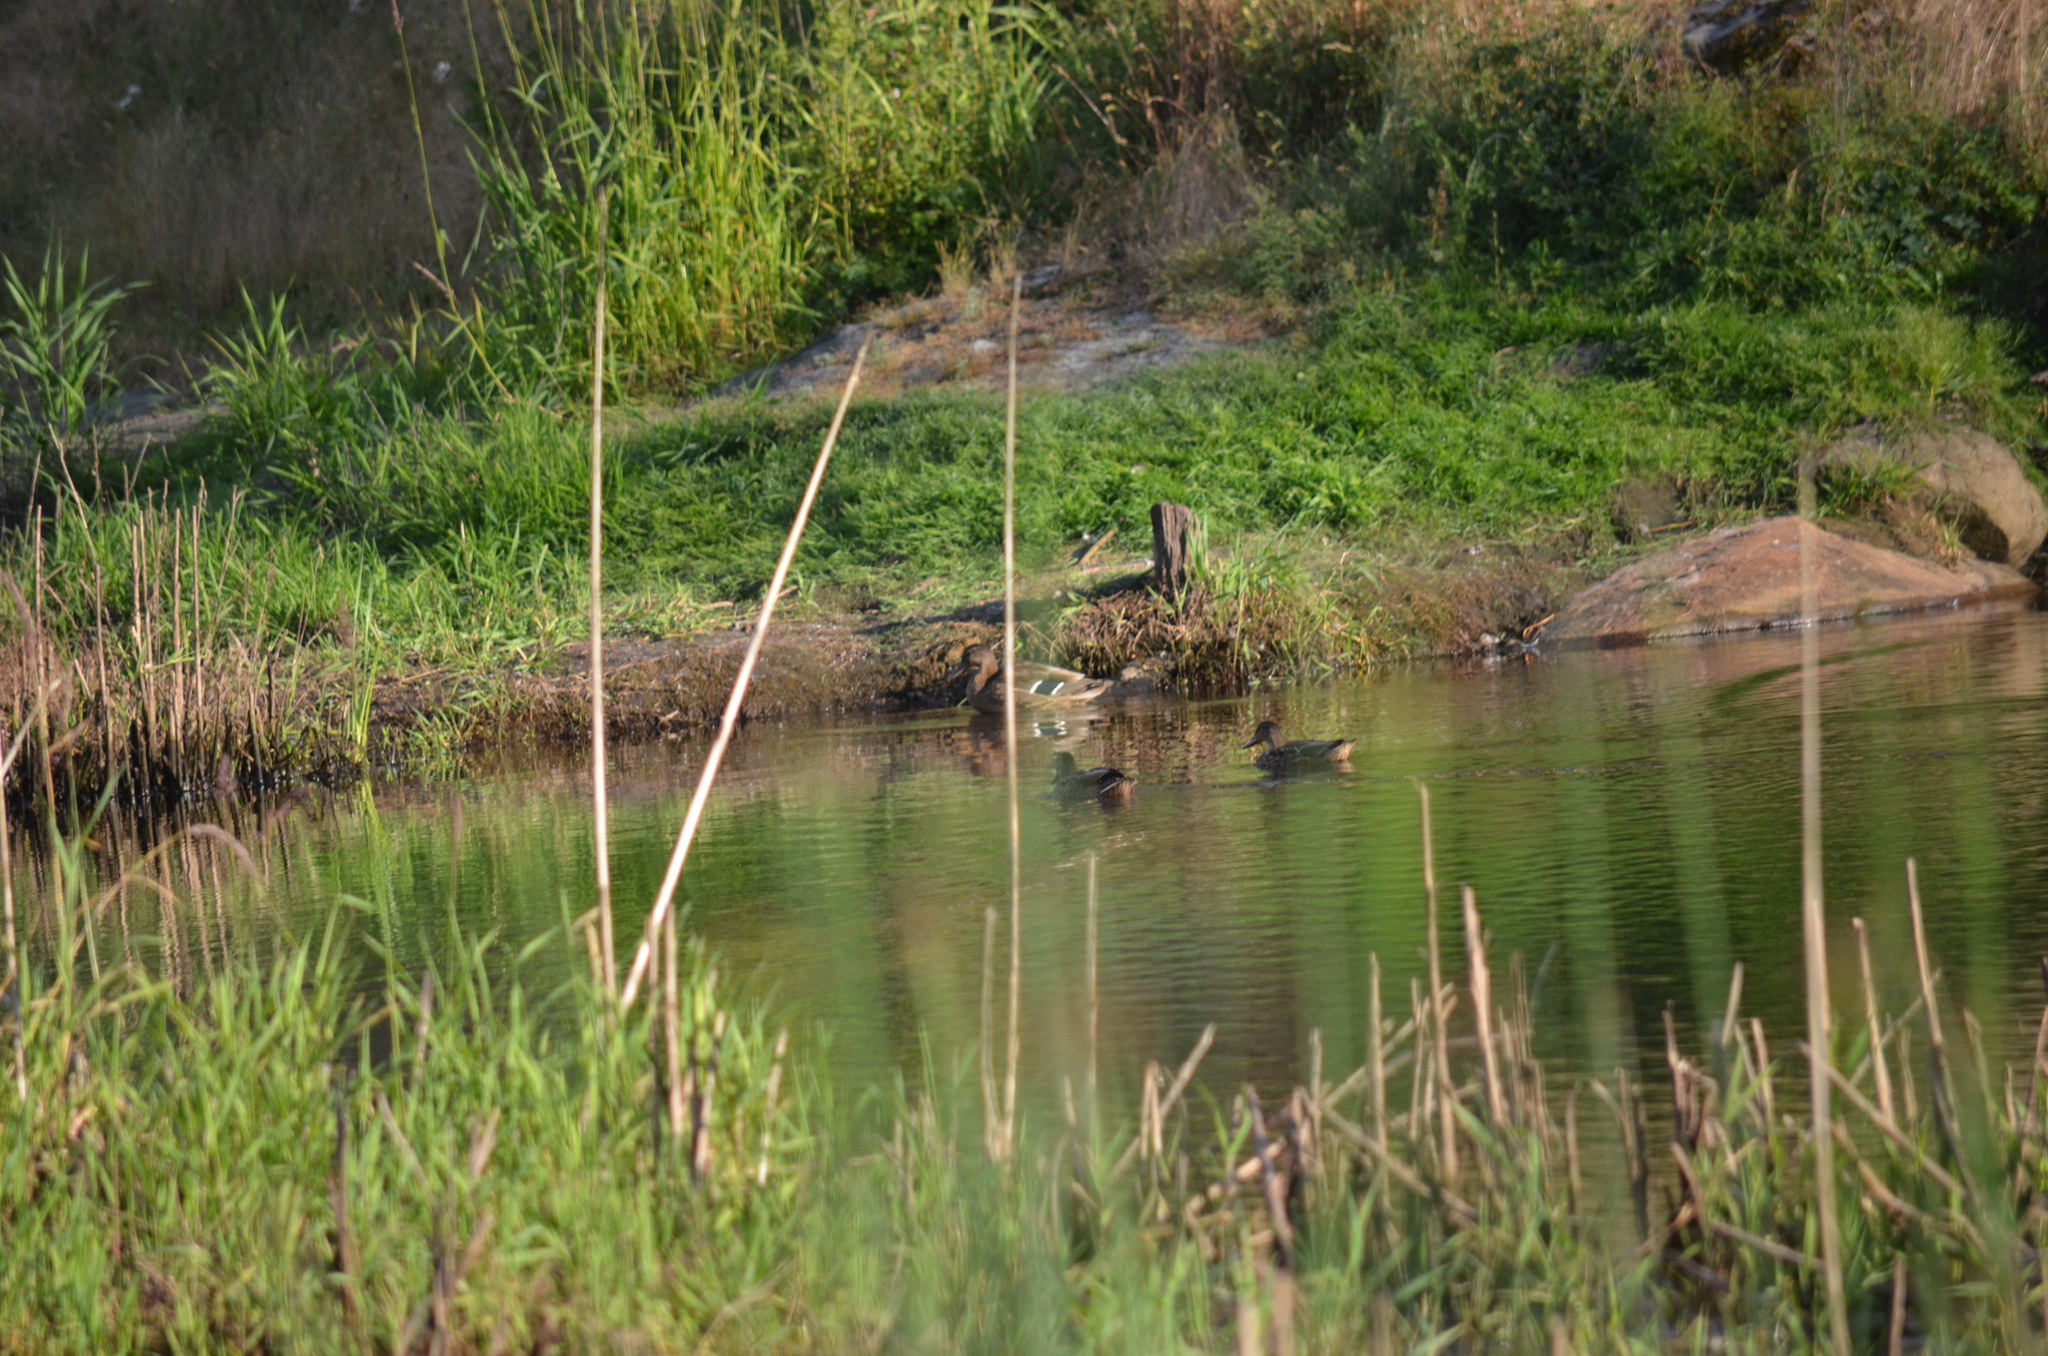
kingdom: Animalia
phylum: Chordata
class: Aves
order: Anseriformes
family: Anatidae
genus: Anas
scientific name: Anas platyrhynchos
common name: Mallard
